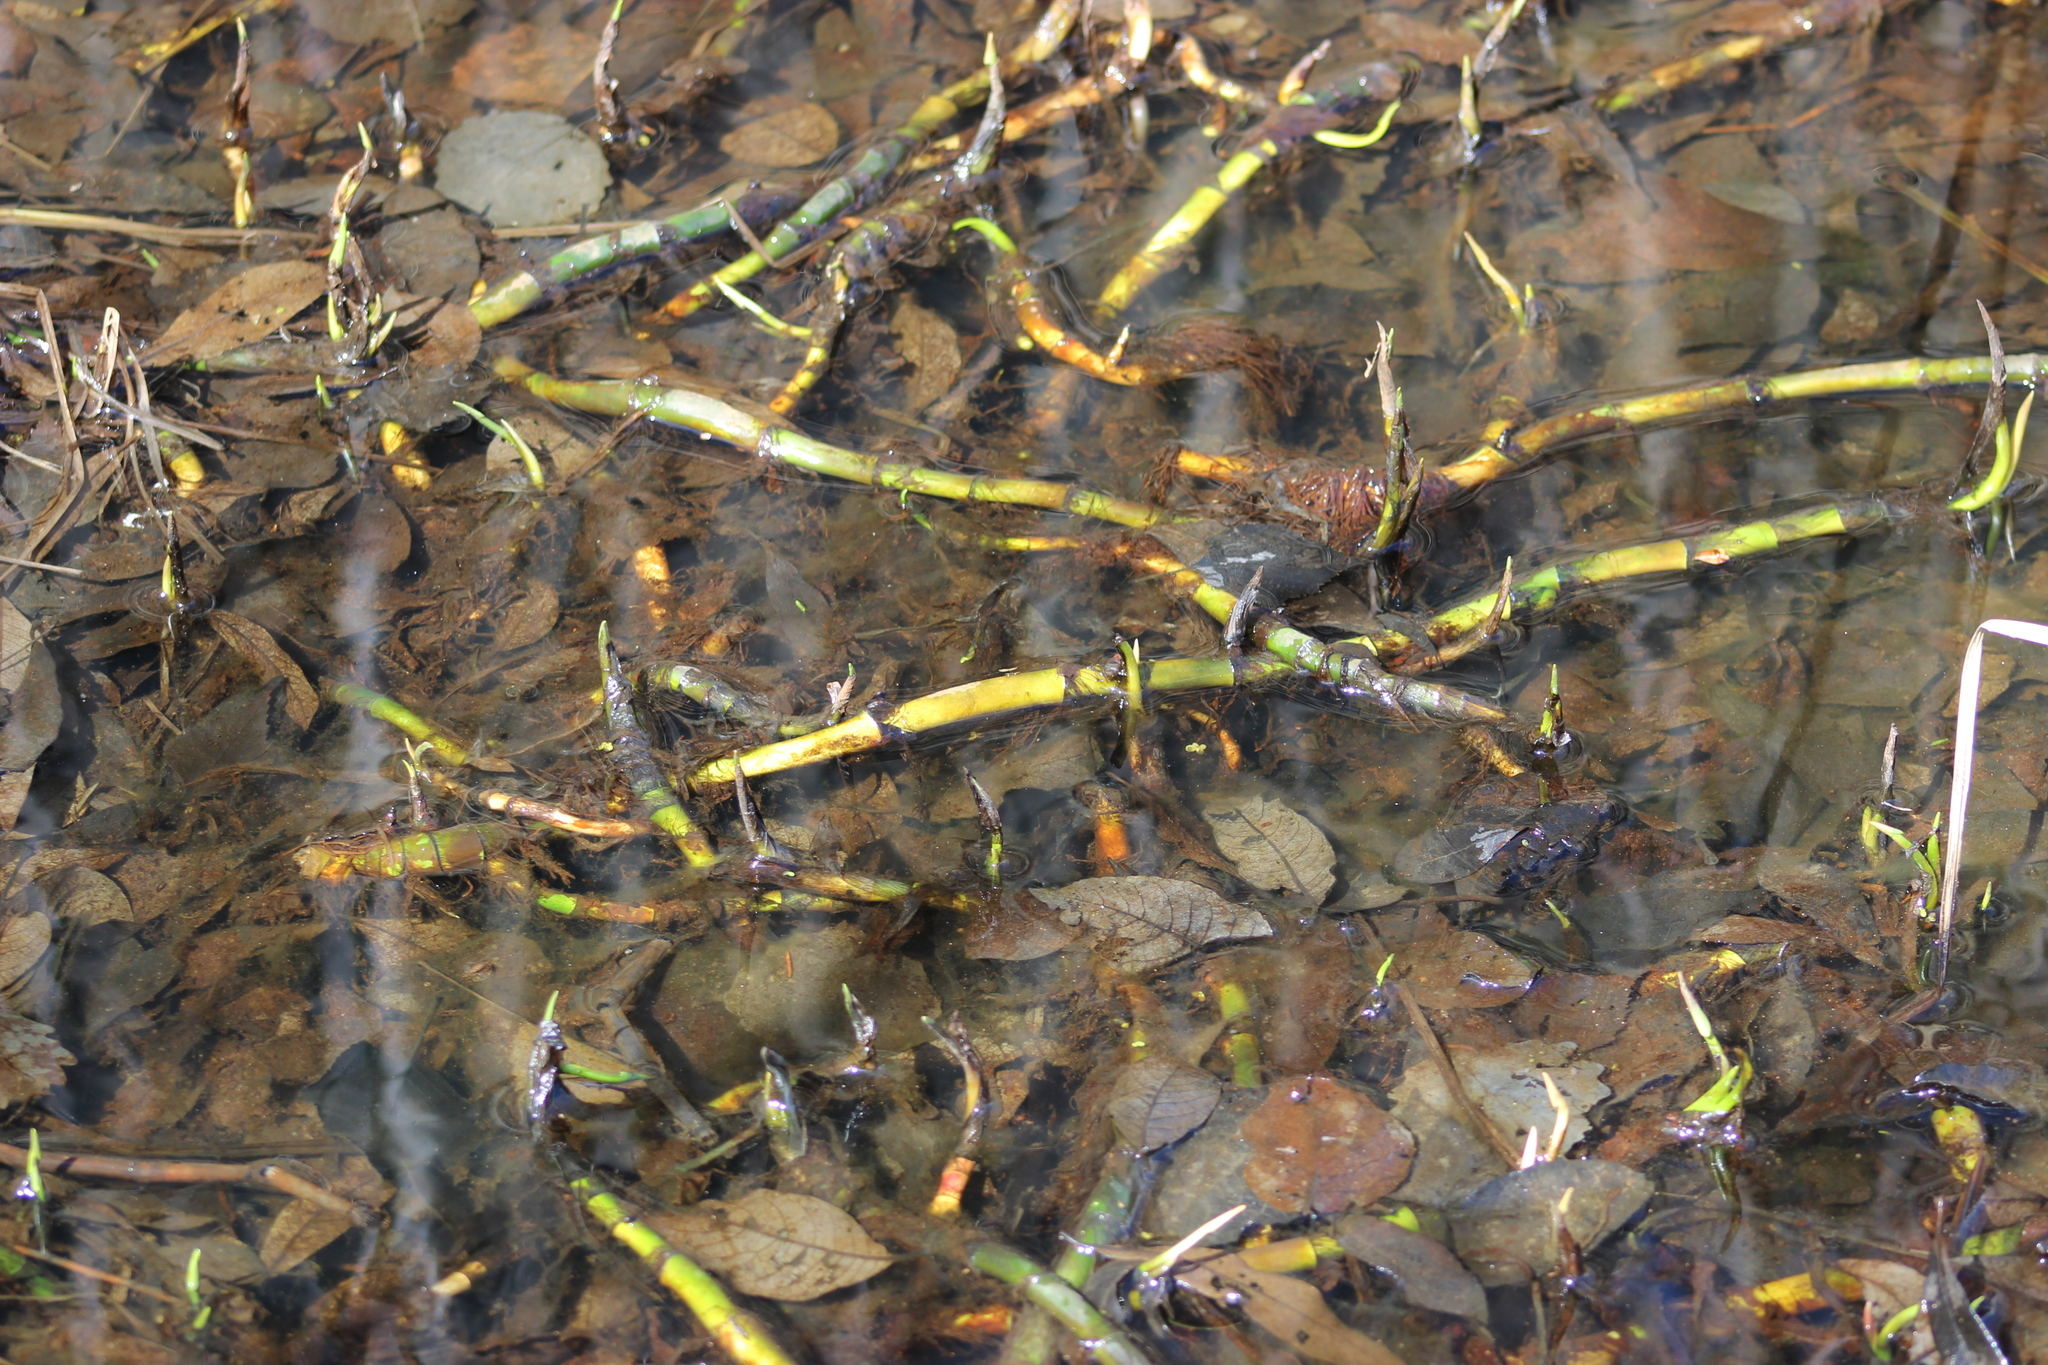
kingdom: Plantae
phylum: Tracheophyta
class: Liliopsida
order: Alismatales
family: Araceae
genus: Calla
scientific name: Calla palustris
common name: Bog arum
